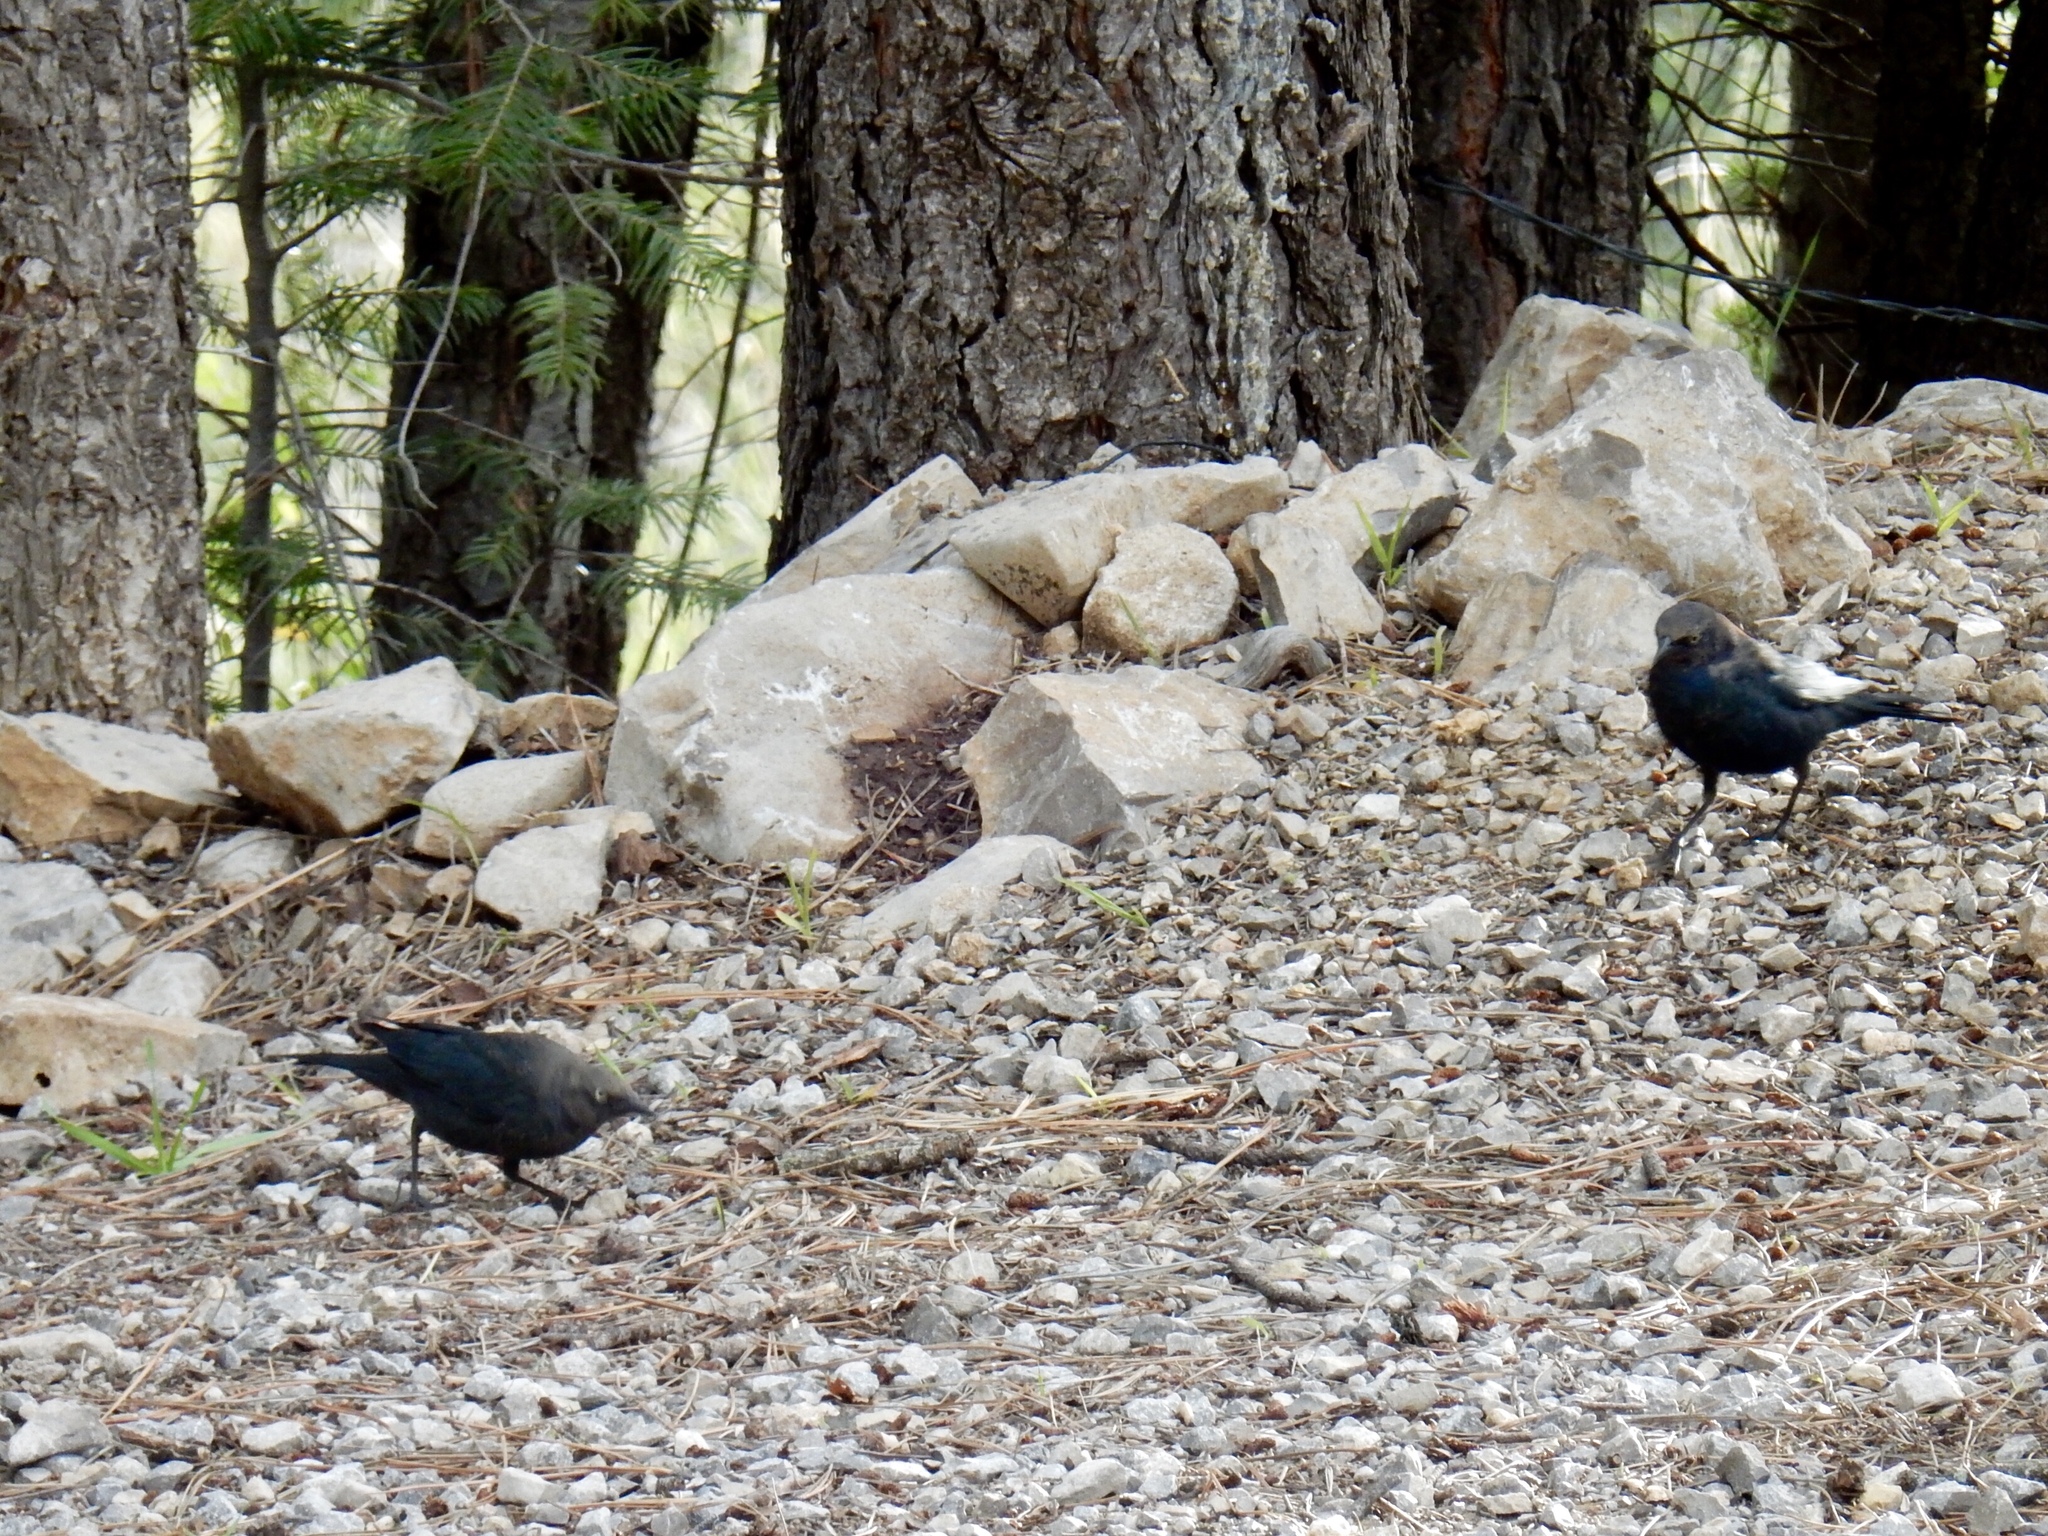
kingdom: Animalia
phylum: Chordata
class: Aves
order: Passeriformes
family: Icteridae
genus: Euphagus
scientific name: Euphagus cyanocephalus
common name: Brewer's blackbird
